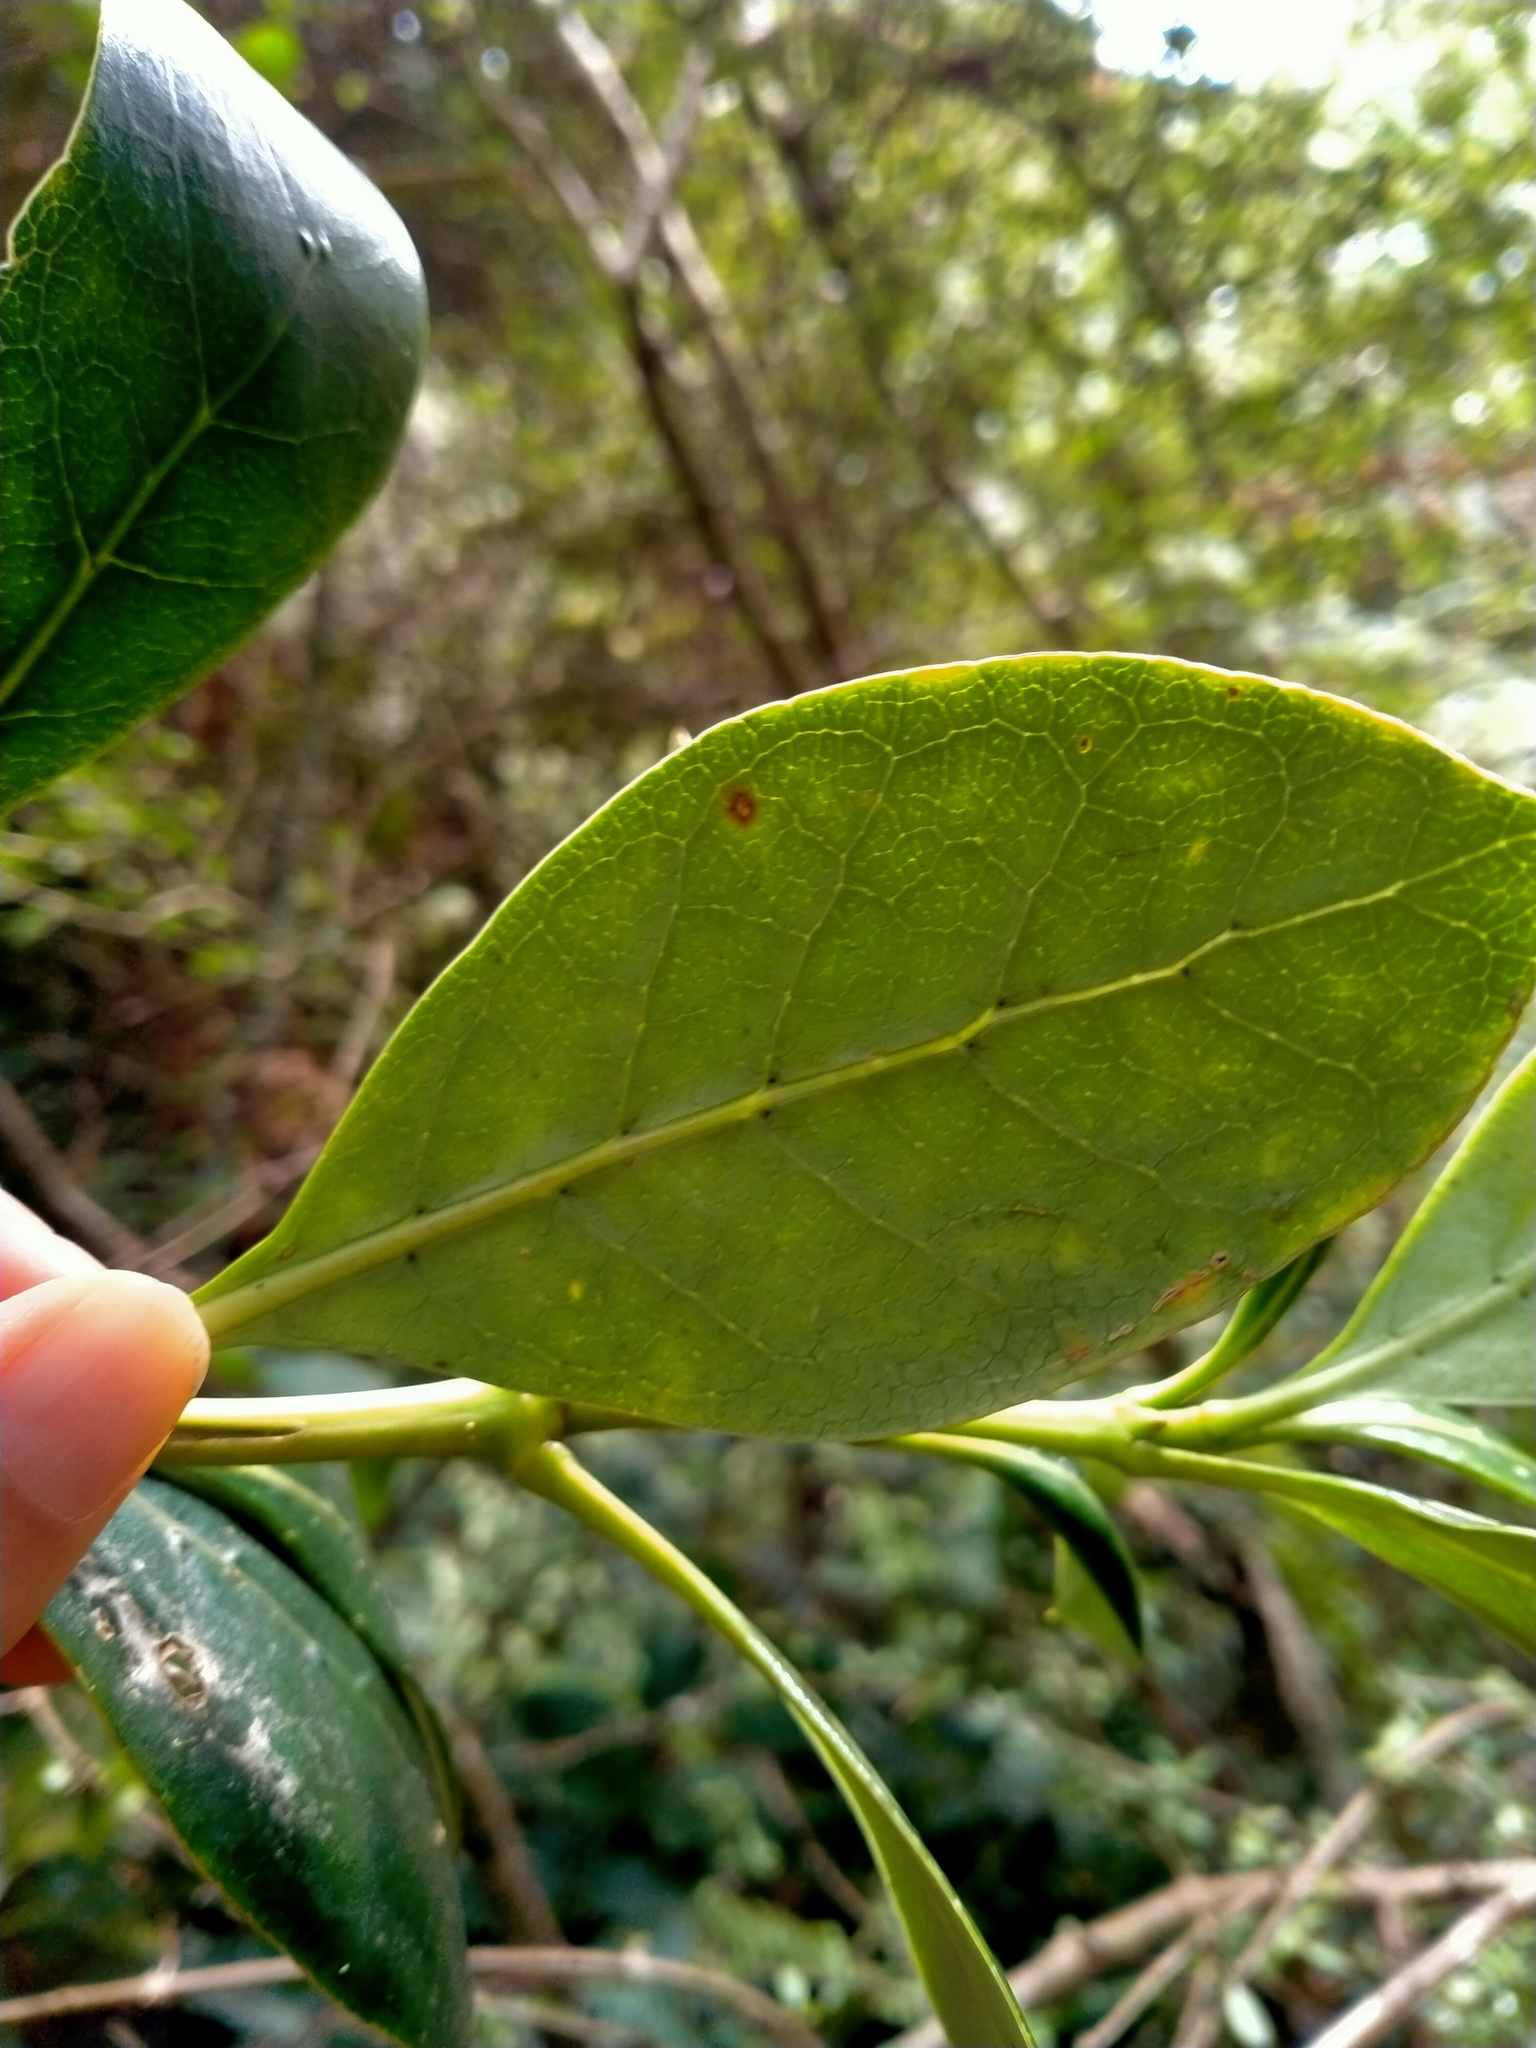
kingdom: Plantae
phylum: Tracheophyta
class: Magnoliopsida
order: Gentianales
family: Rubiaceae
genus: Coprosma
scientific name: Coprosma lucida
